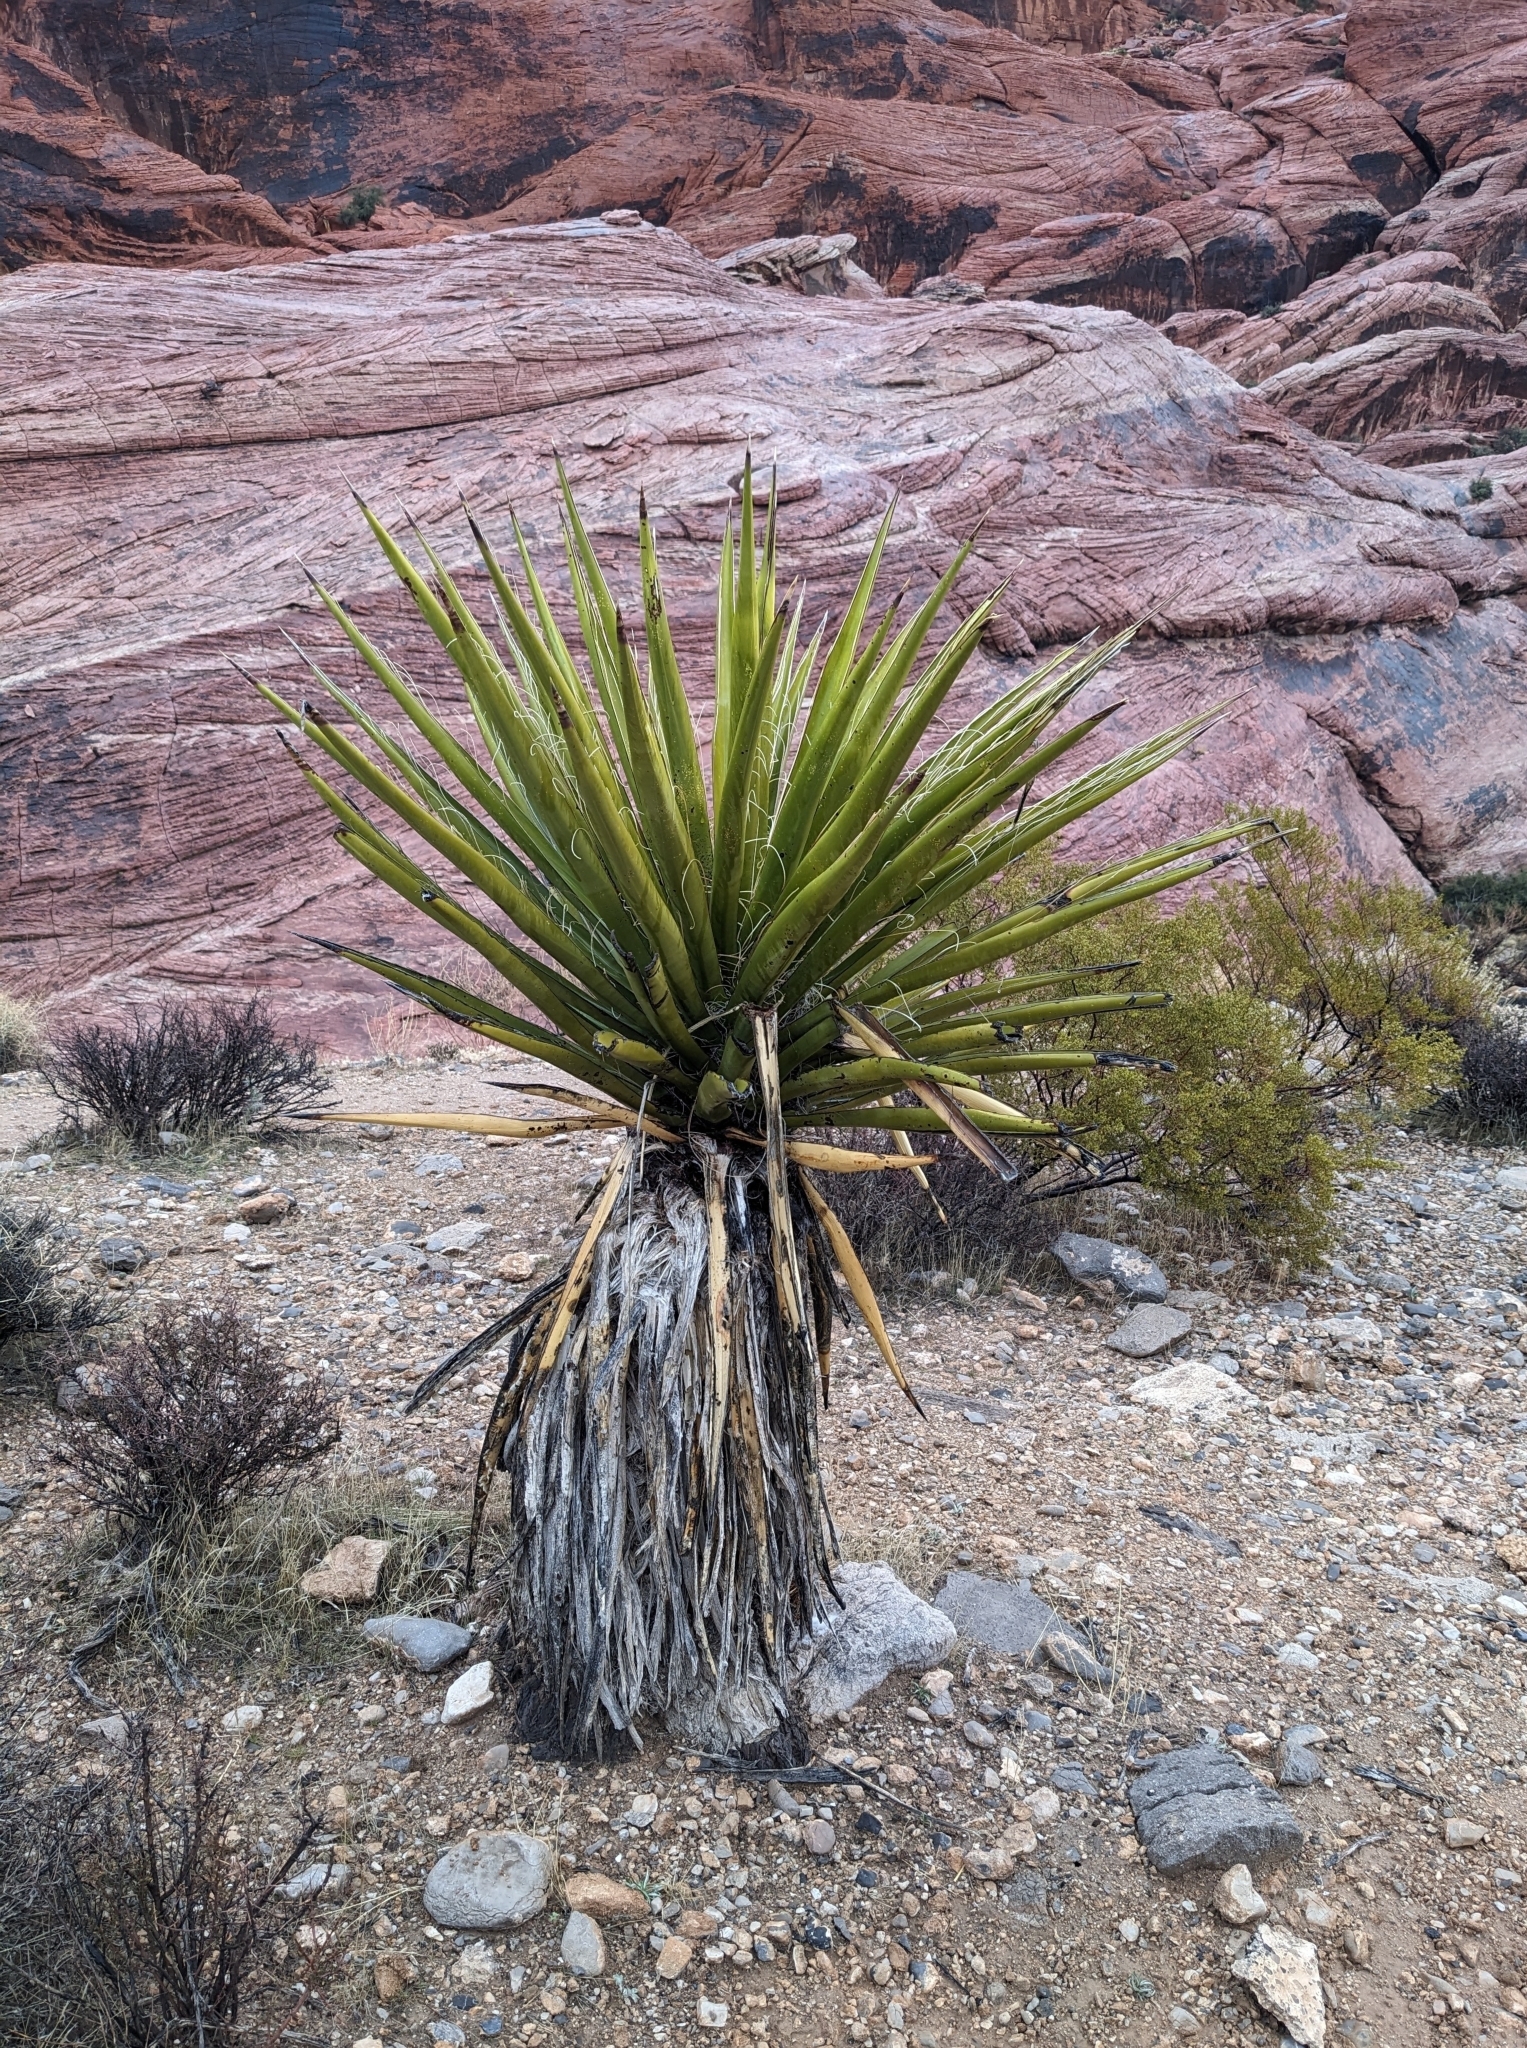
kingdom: Plantae
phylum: Tracheophyta
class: Liliopsida
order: Asparagales
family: Asparagaceae
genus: Yucca
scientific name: Yucca schidigera
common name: Mojave yucca
